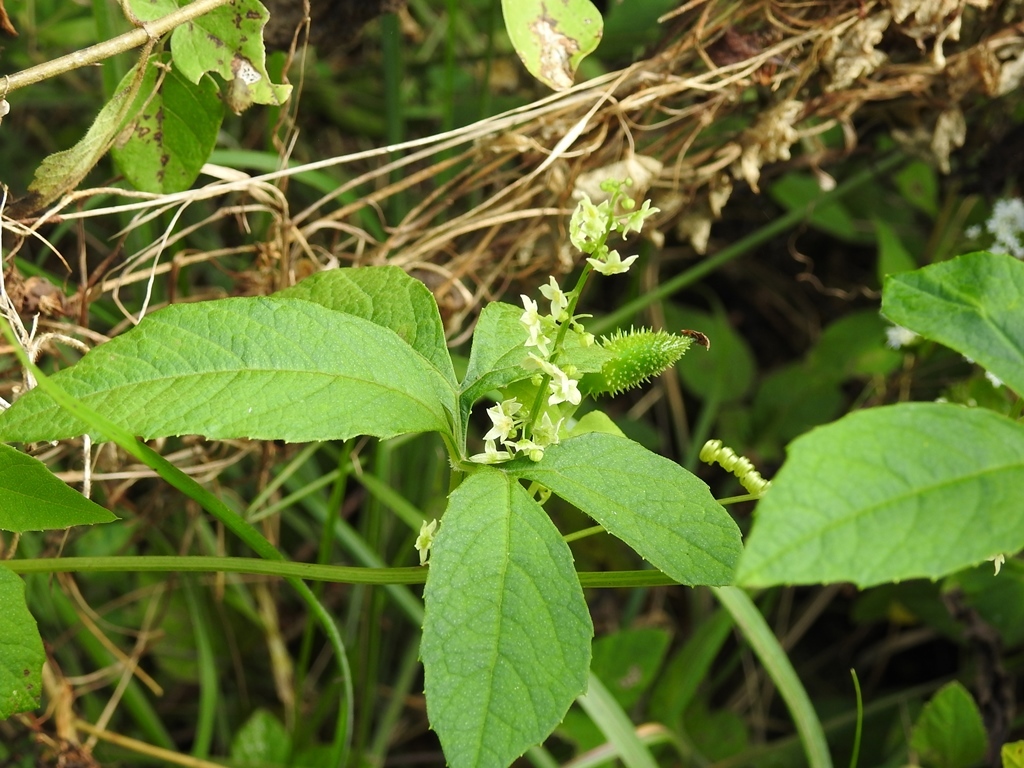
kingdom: Plantae
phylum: Tracheophyta
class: Magnoliopsida
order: Cucurbitales
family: Cucurbitaceae
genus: Cyclanthera
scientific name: Cyclanthera integrifoliola
